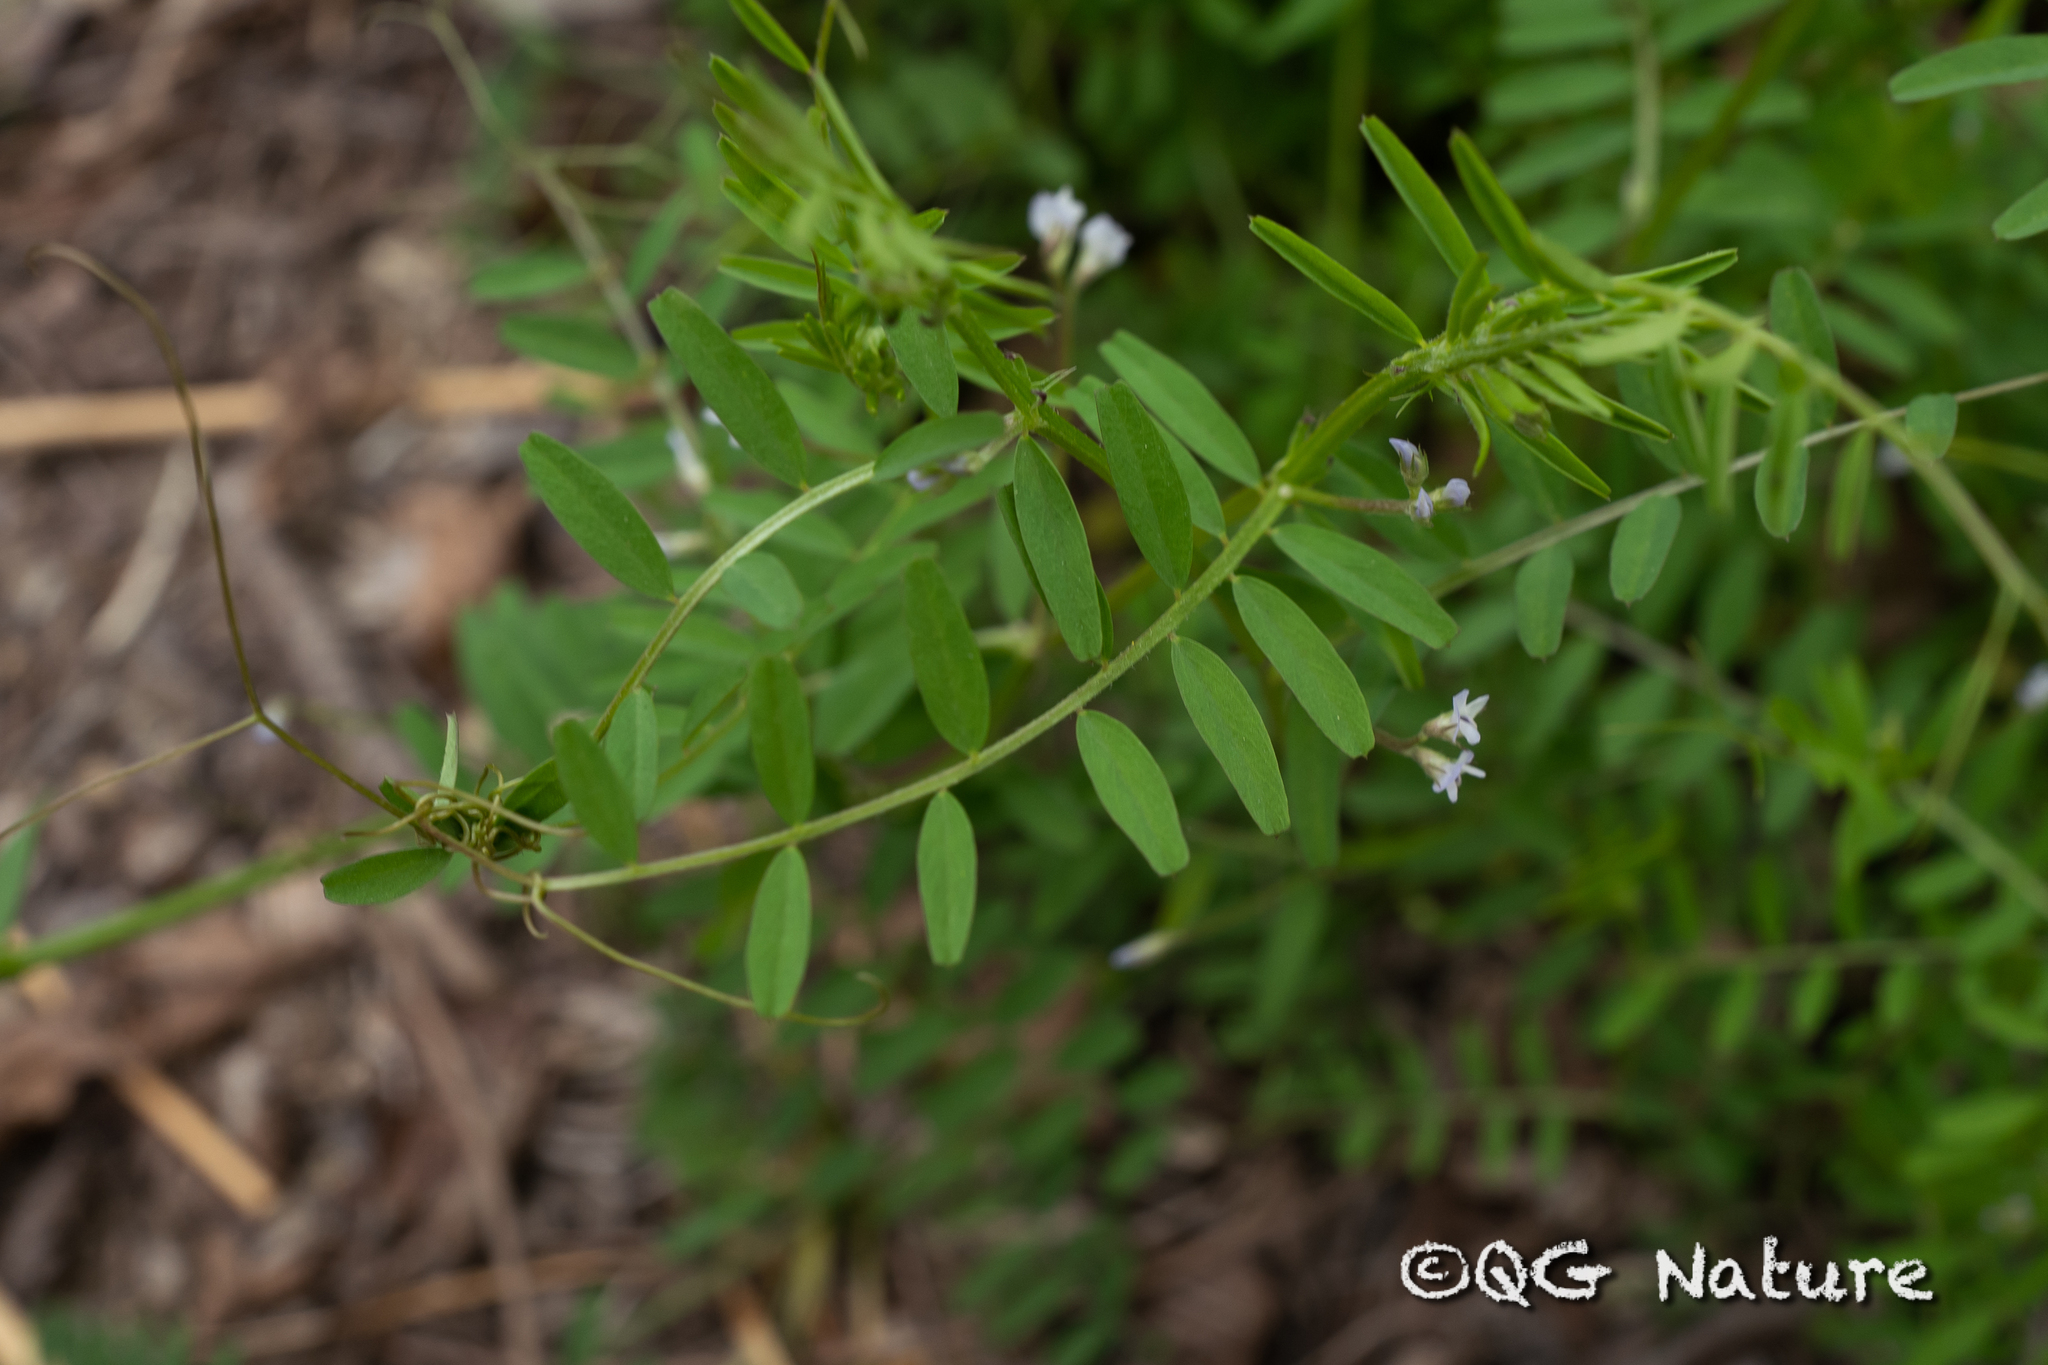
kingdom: Plantae
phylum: Tracheophyta
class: Magnoliopsida
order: Fabales
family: Fabaceae
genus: Vicia
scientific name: Vicia hirsuta
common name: Tiny vetch
